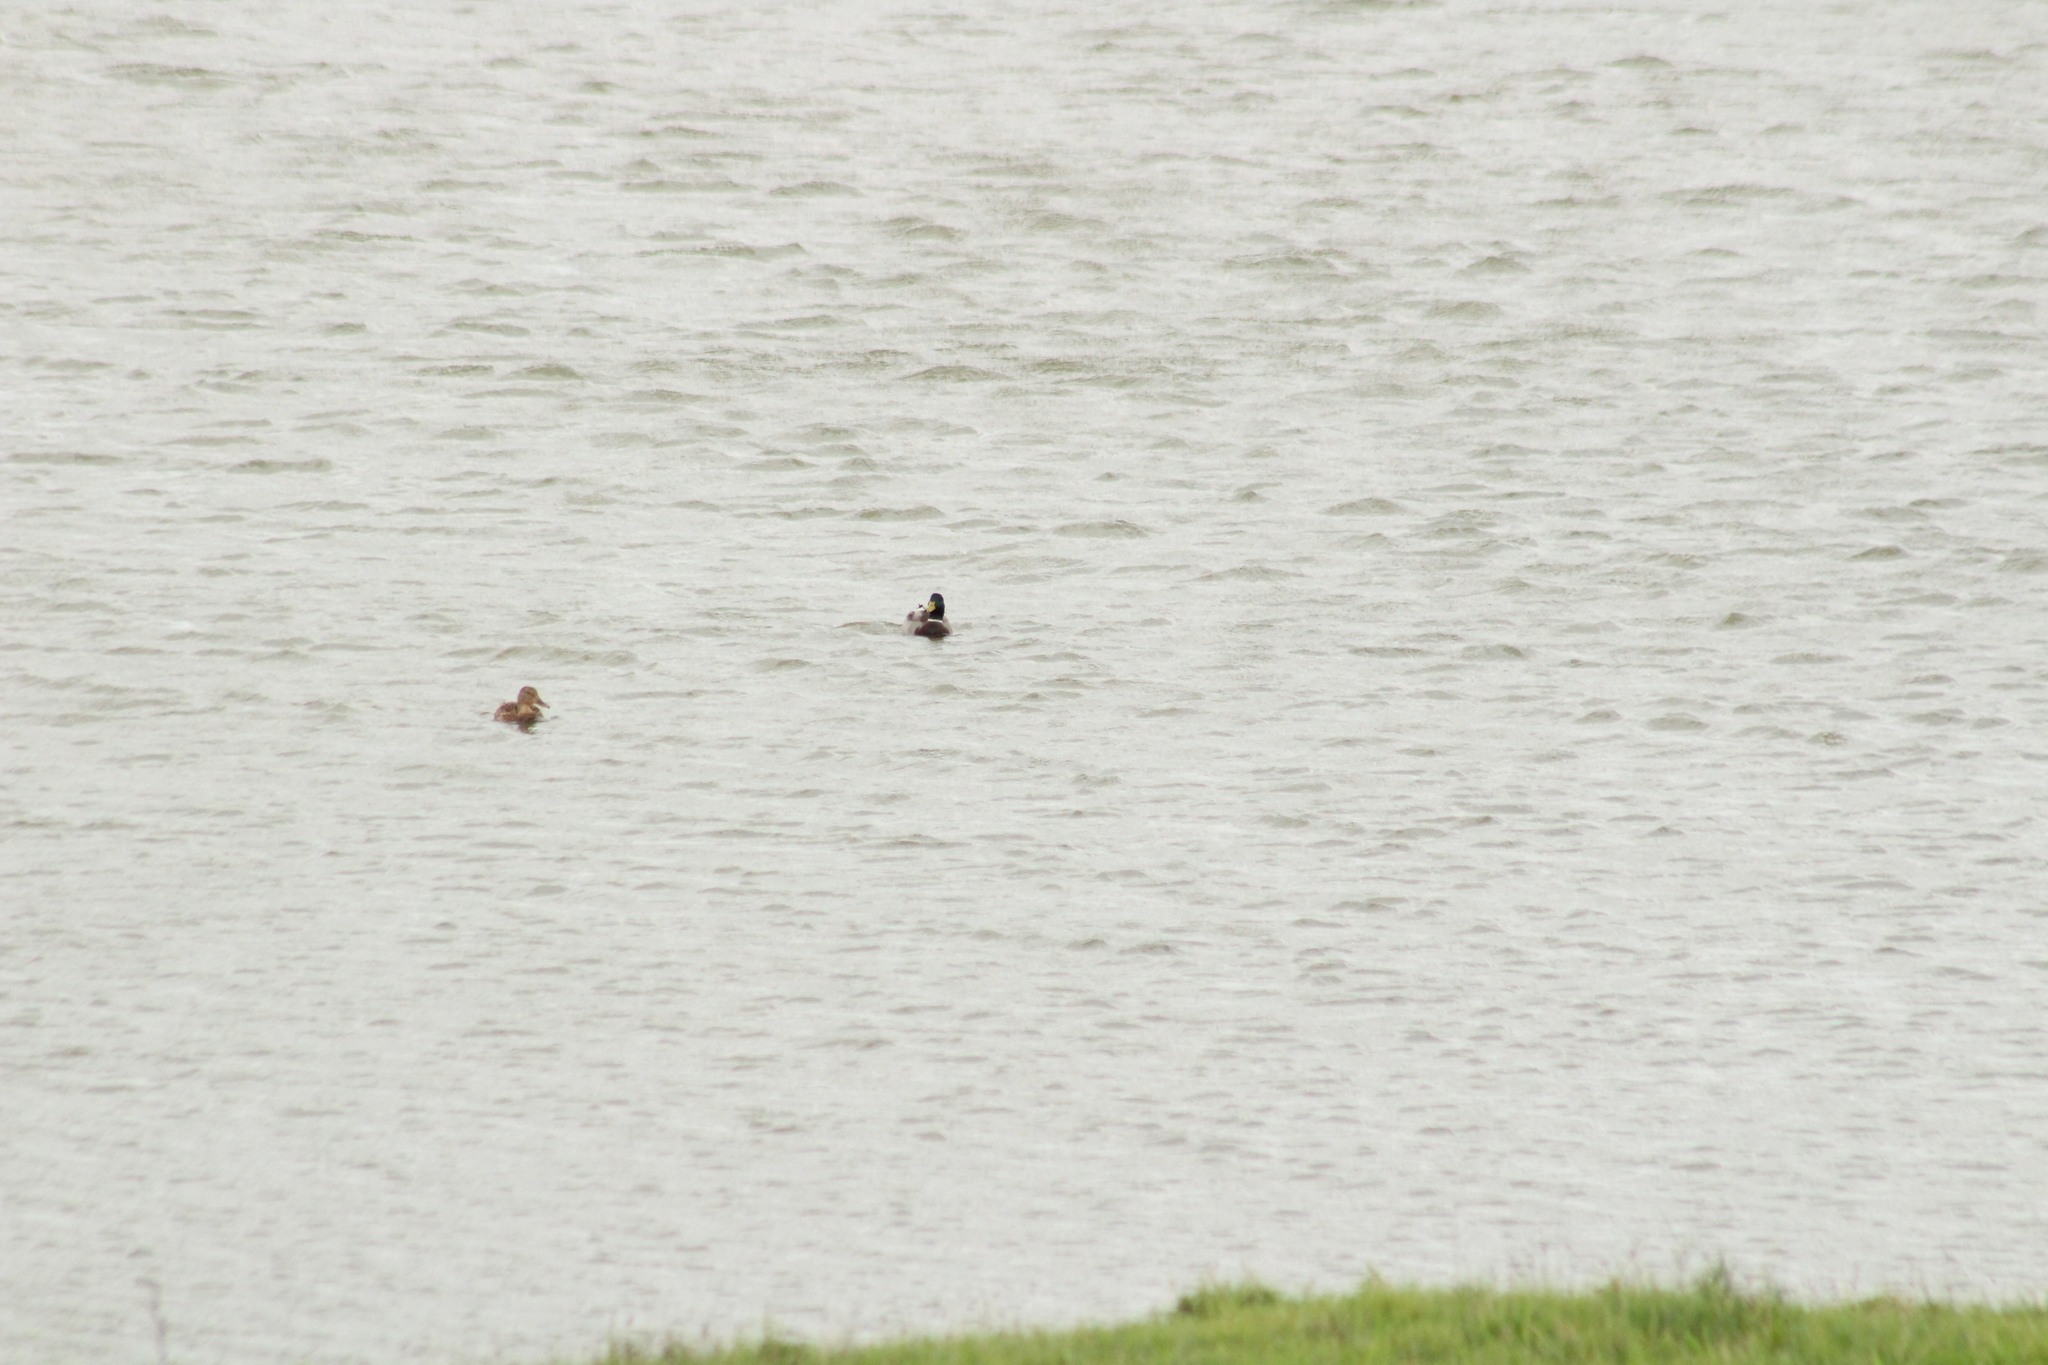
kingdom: Animalia
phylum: Chordata
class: Aves
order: Anseriformes
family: Anatidae
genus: Anas
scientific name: Anas platyrhynchos
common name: Mallard
